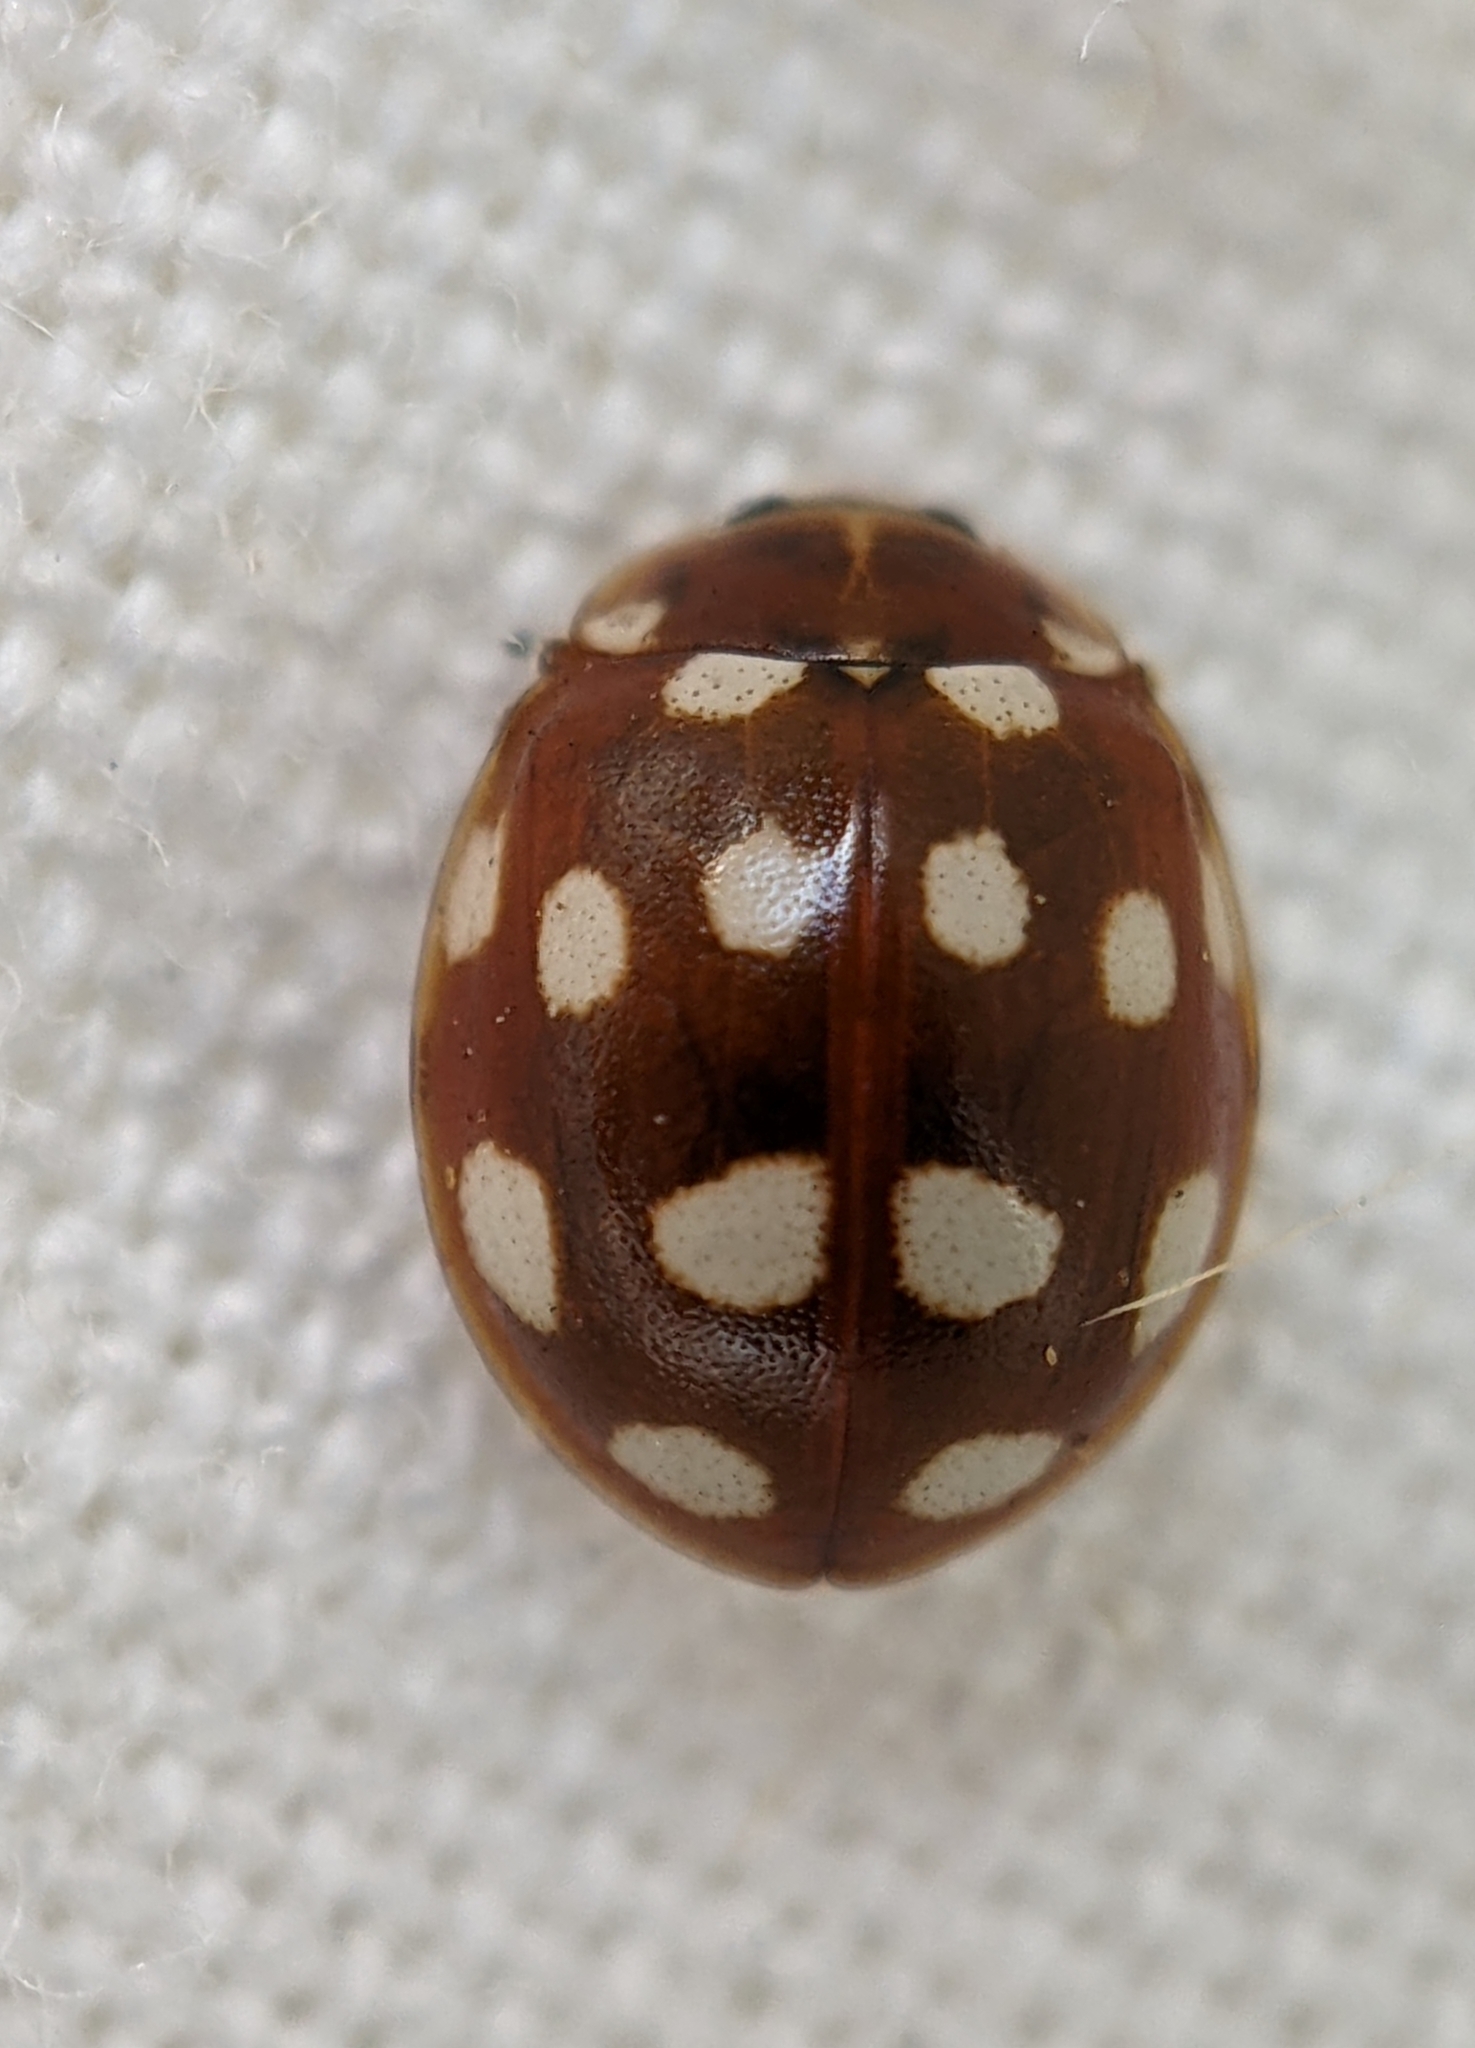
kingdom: Animalia
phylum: Arthropoda
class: Insecta
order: Coleoptera
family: Coccinellidae
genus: Calvia
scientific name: Calvia quatuordecimguttata
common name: Cream-spot ladybird
